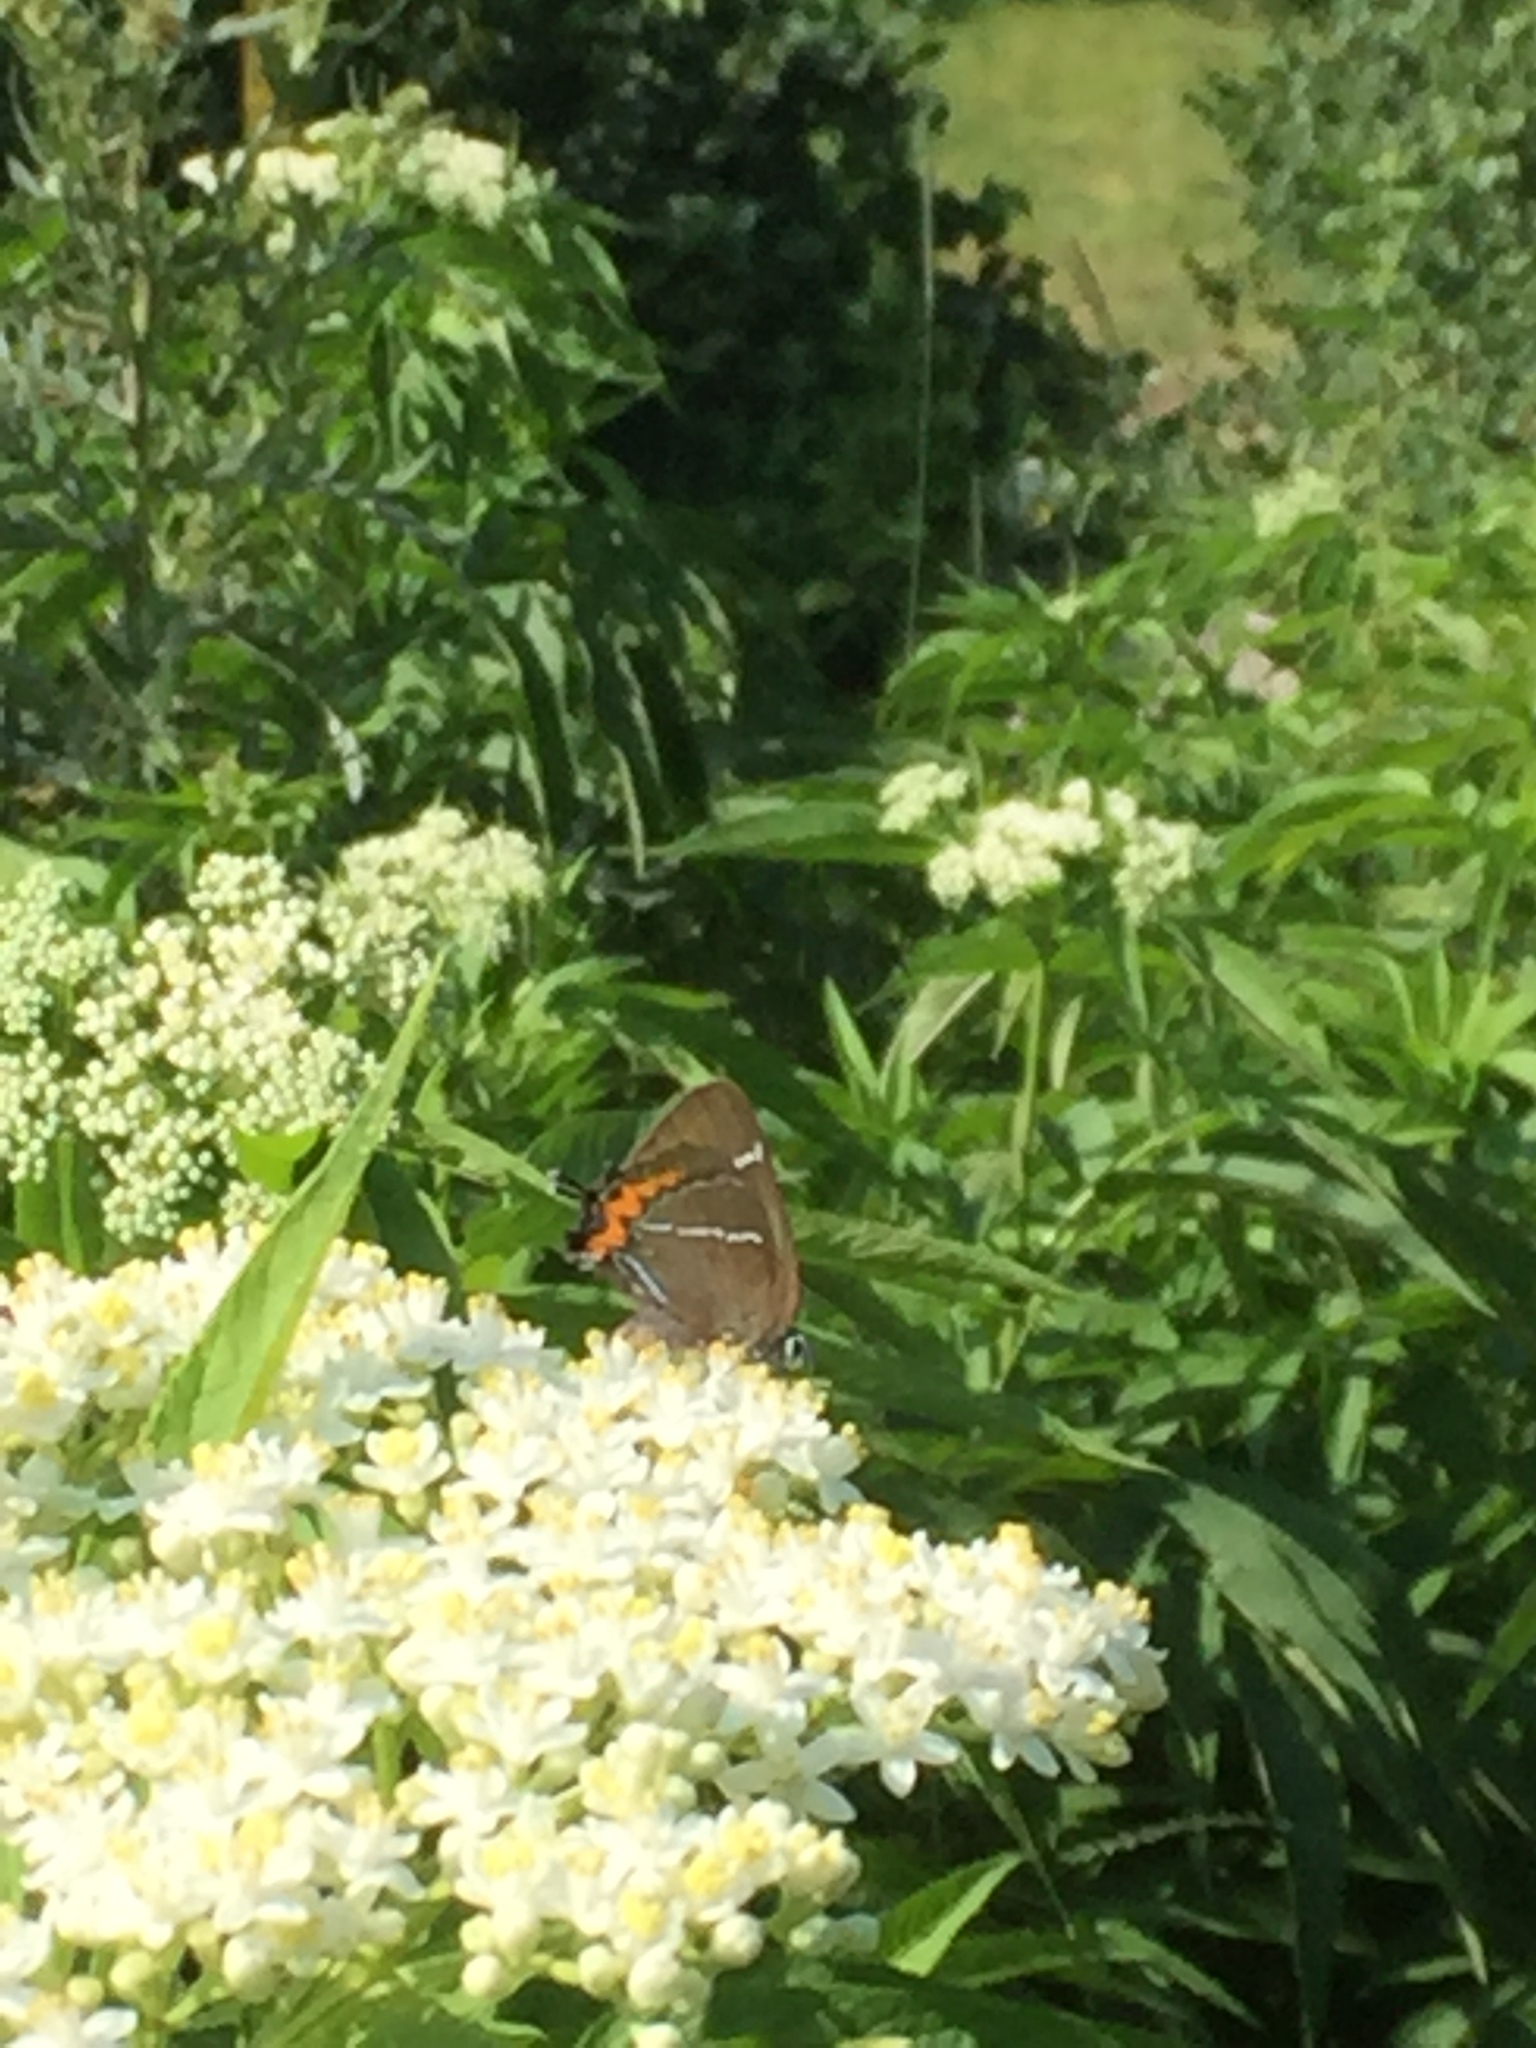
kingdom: Animalia
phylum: Arthropoda
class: Insecta
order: Lepidoptera
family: Lycaenidae
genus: Satyrium
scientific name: Satyrium w-album
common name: White-letter hairstreak
